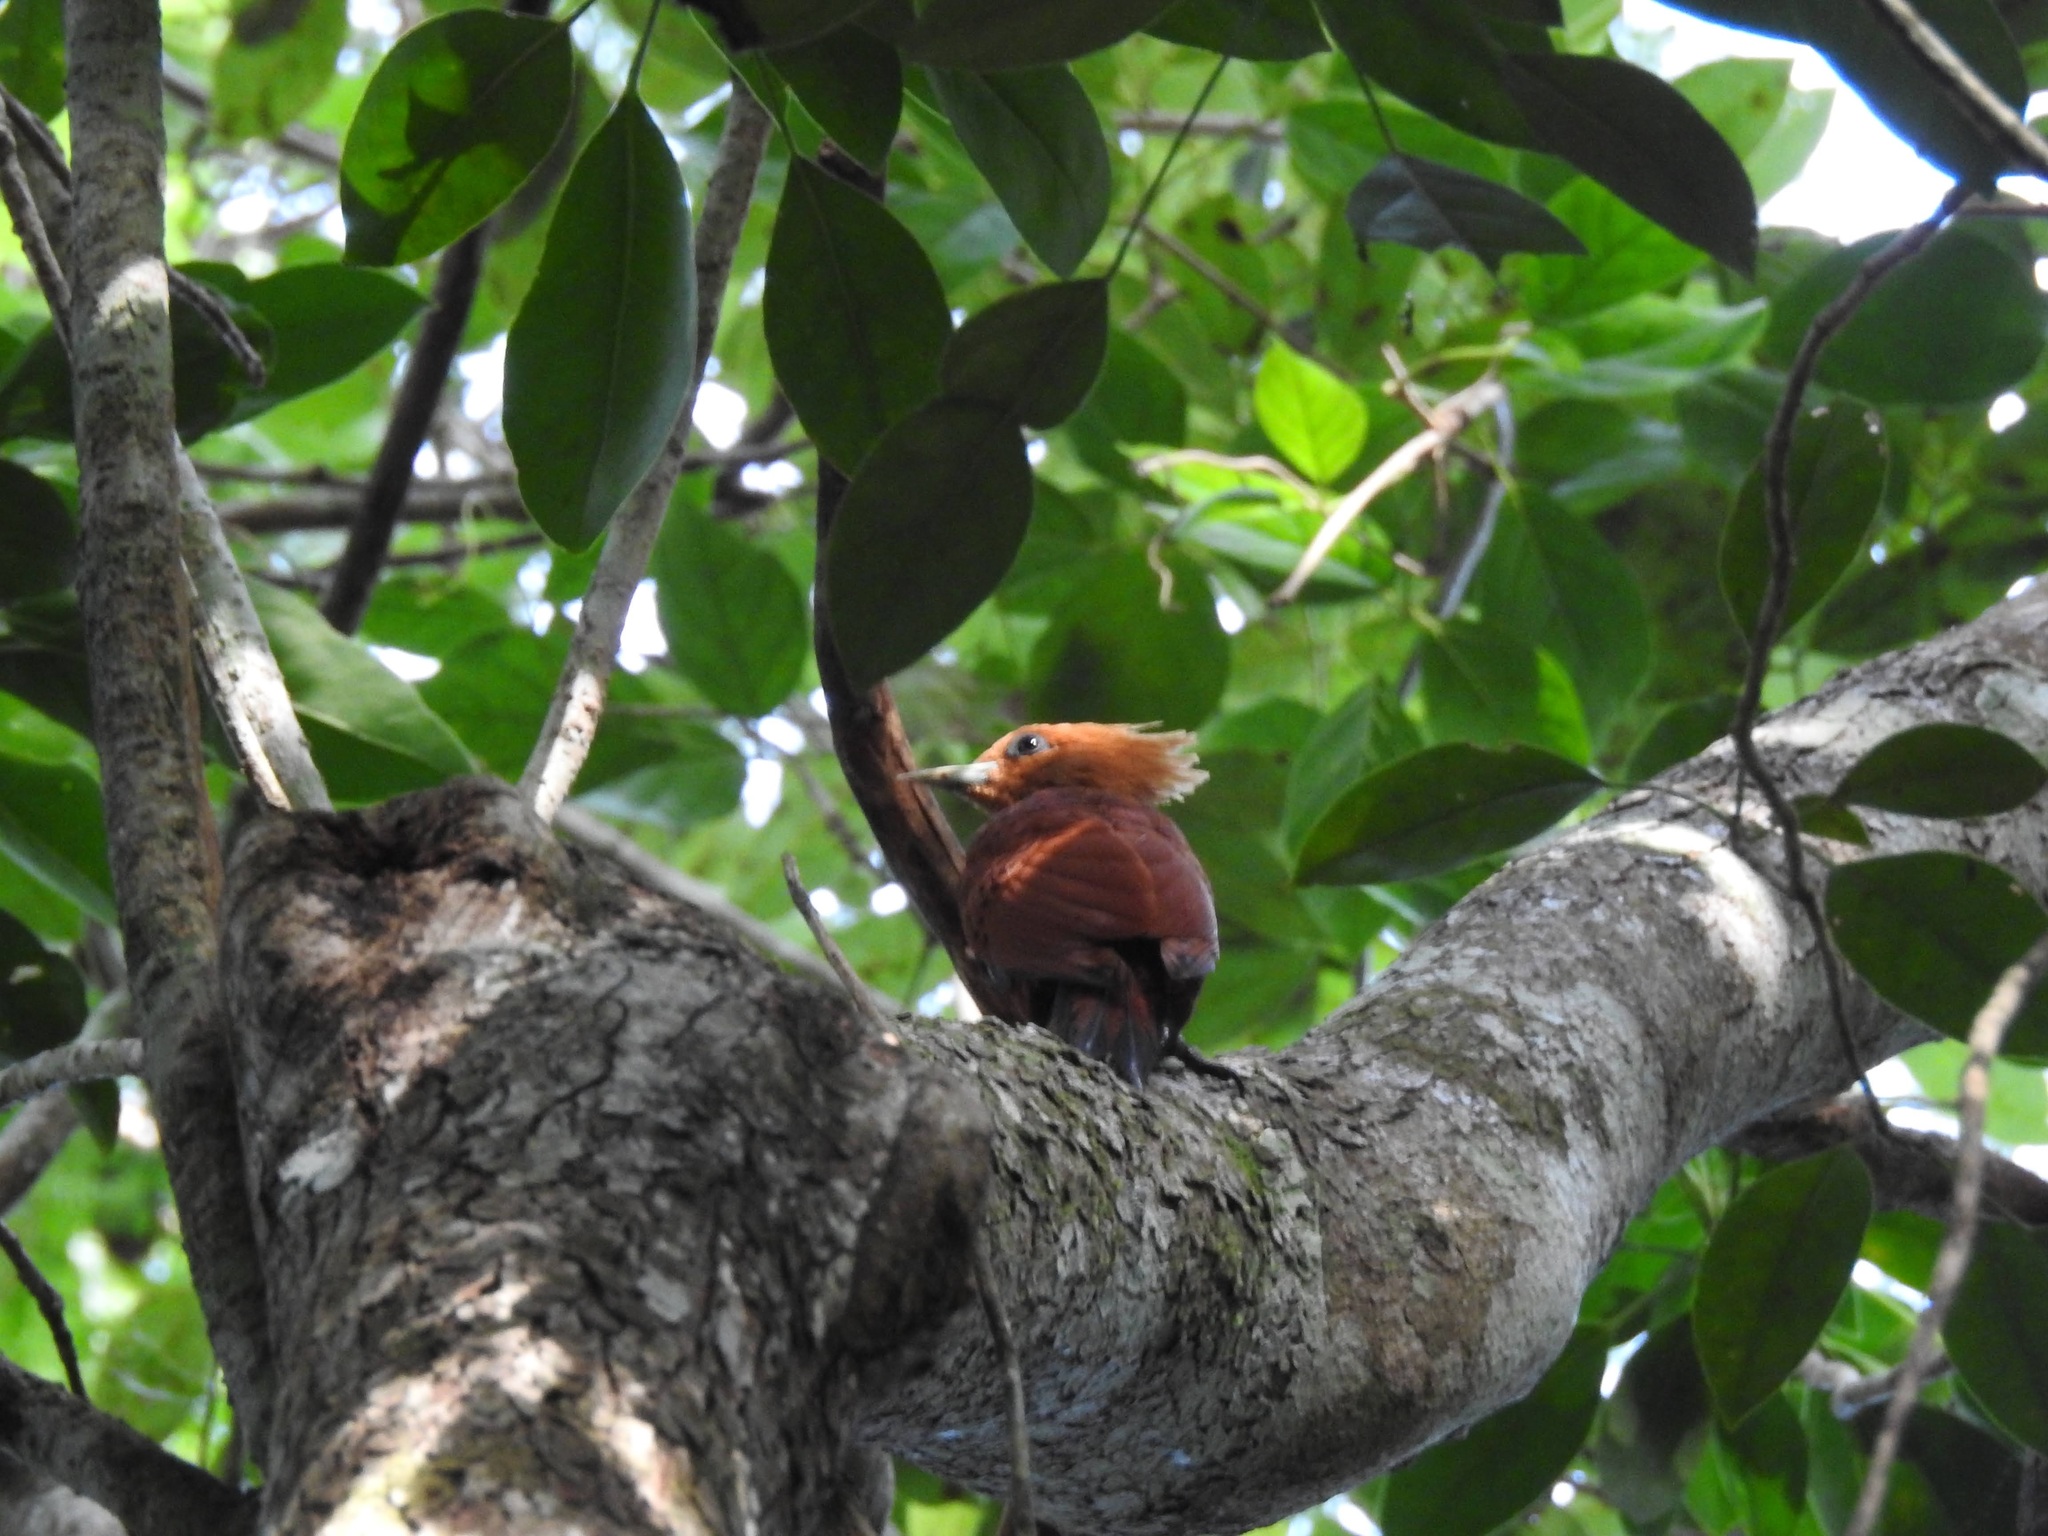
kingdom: Animalia
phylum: Chordata
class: Aves
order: Piciformes
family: Picidae
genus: Celeus
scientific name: Celeus castaneus
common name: Chestnut-colored woodpecker
